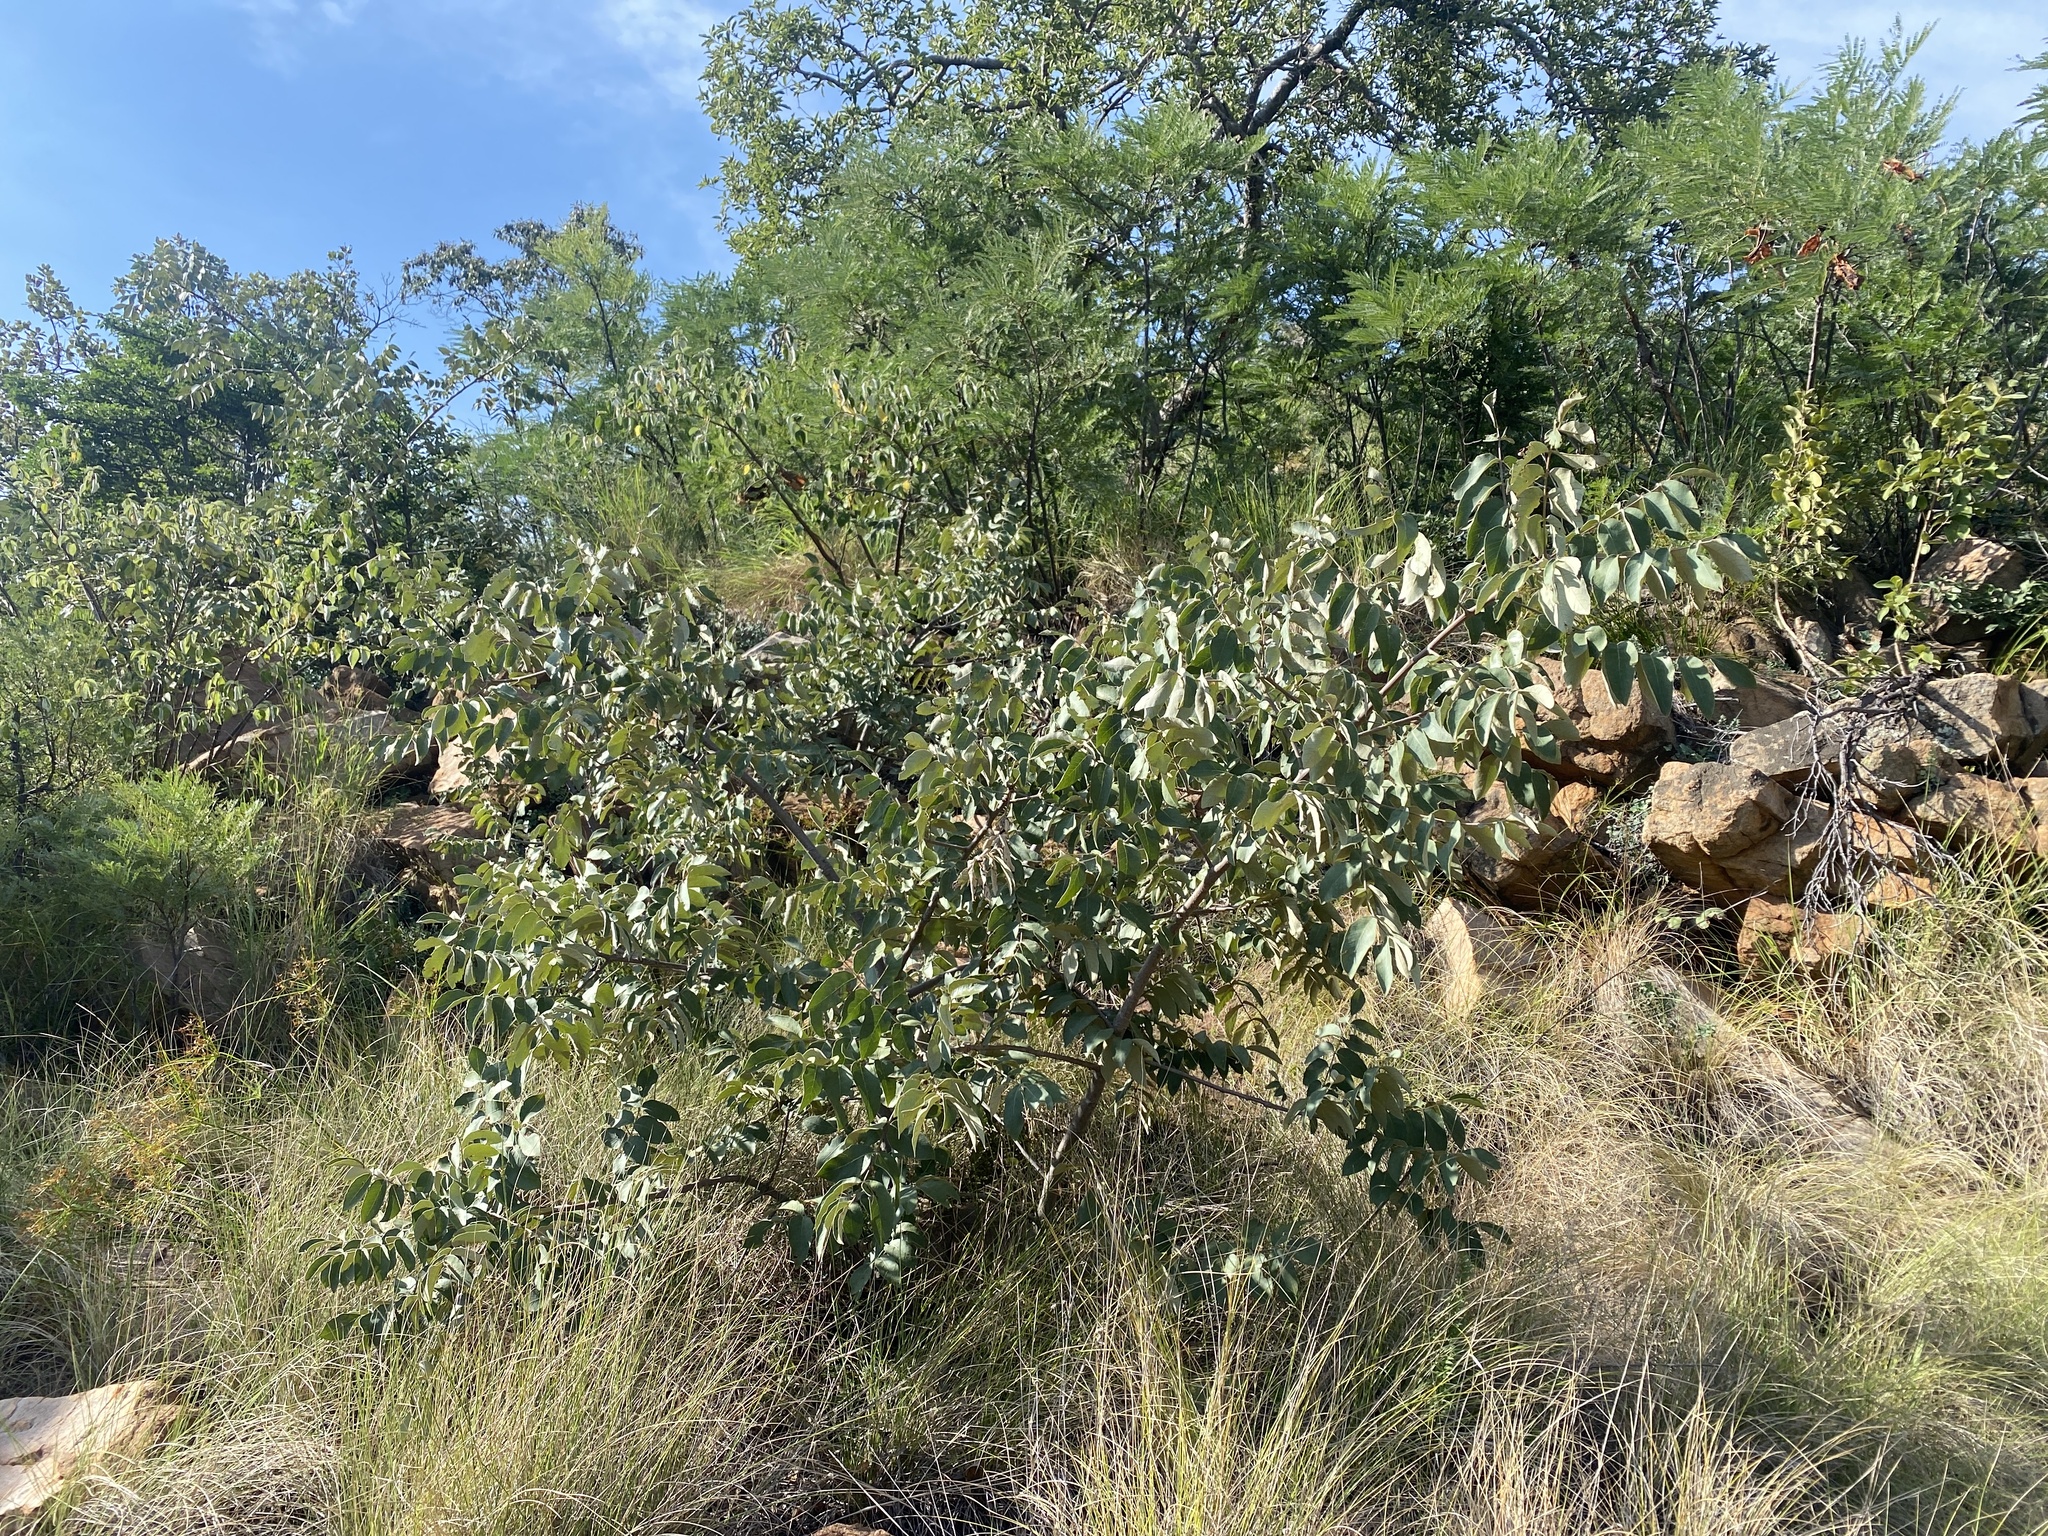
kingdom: Plantae
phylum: Tracheophyta
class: Magnoliopsida
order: Sapindales
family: Anacardiaceae
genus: Lannea
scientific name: Lannea discolor
